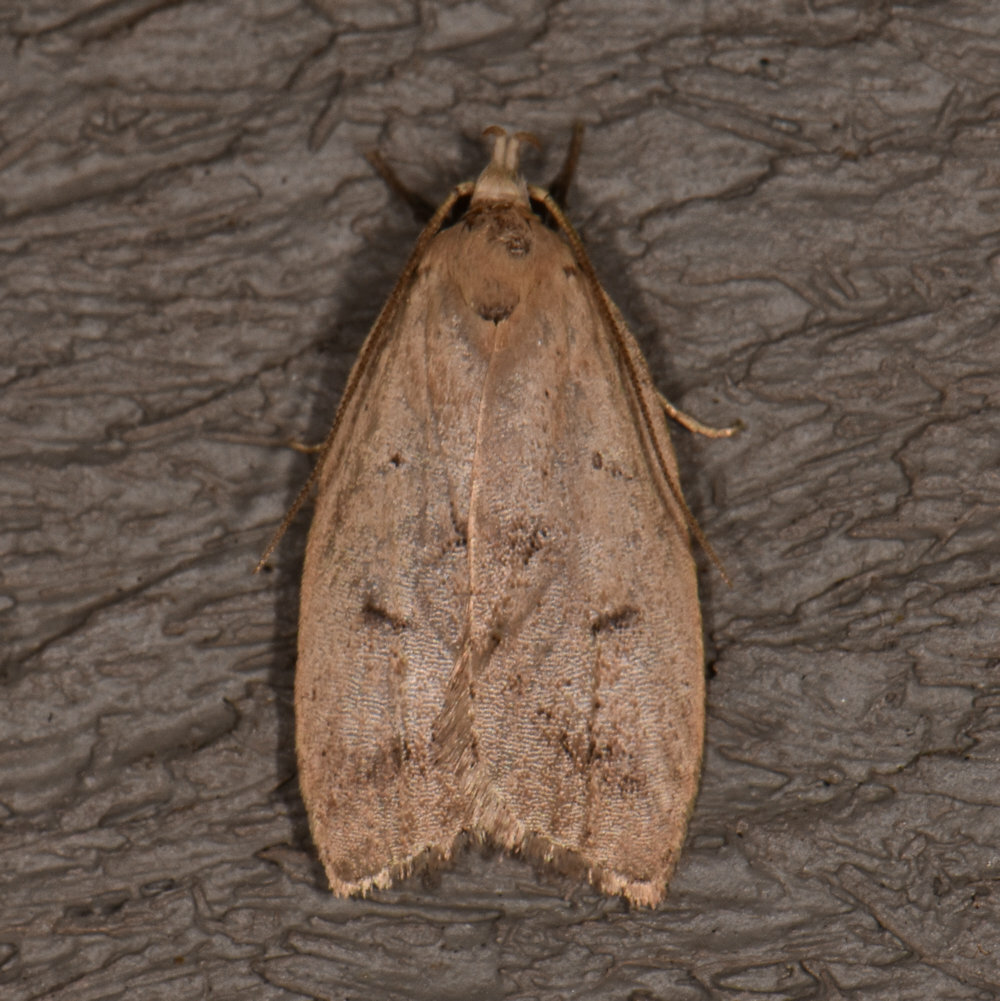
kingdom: Animalia
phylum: Arthropoda
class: Insecta
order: Lepidoptera
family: Peleopodidae
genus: Machimia
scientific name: Machimia tentoriferella
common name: Gold-striped leaftier moth
